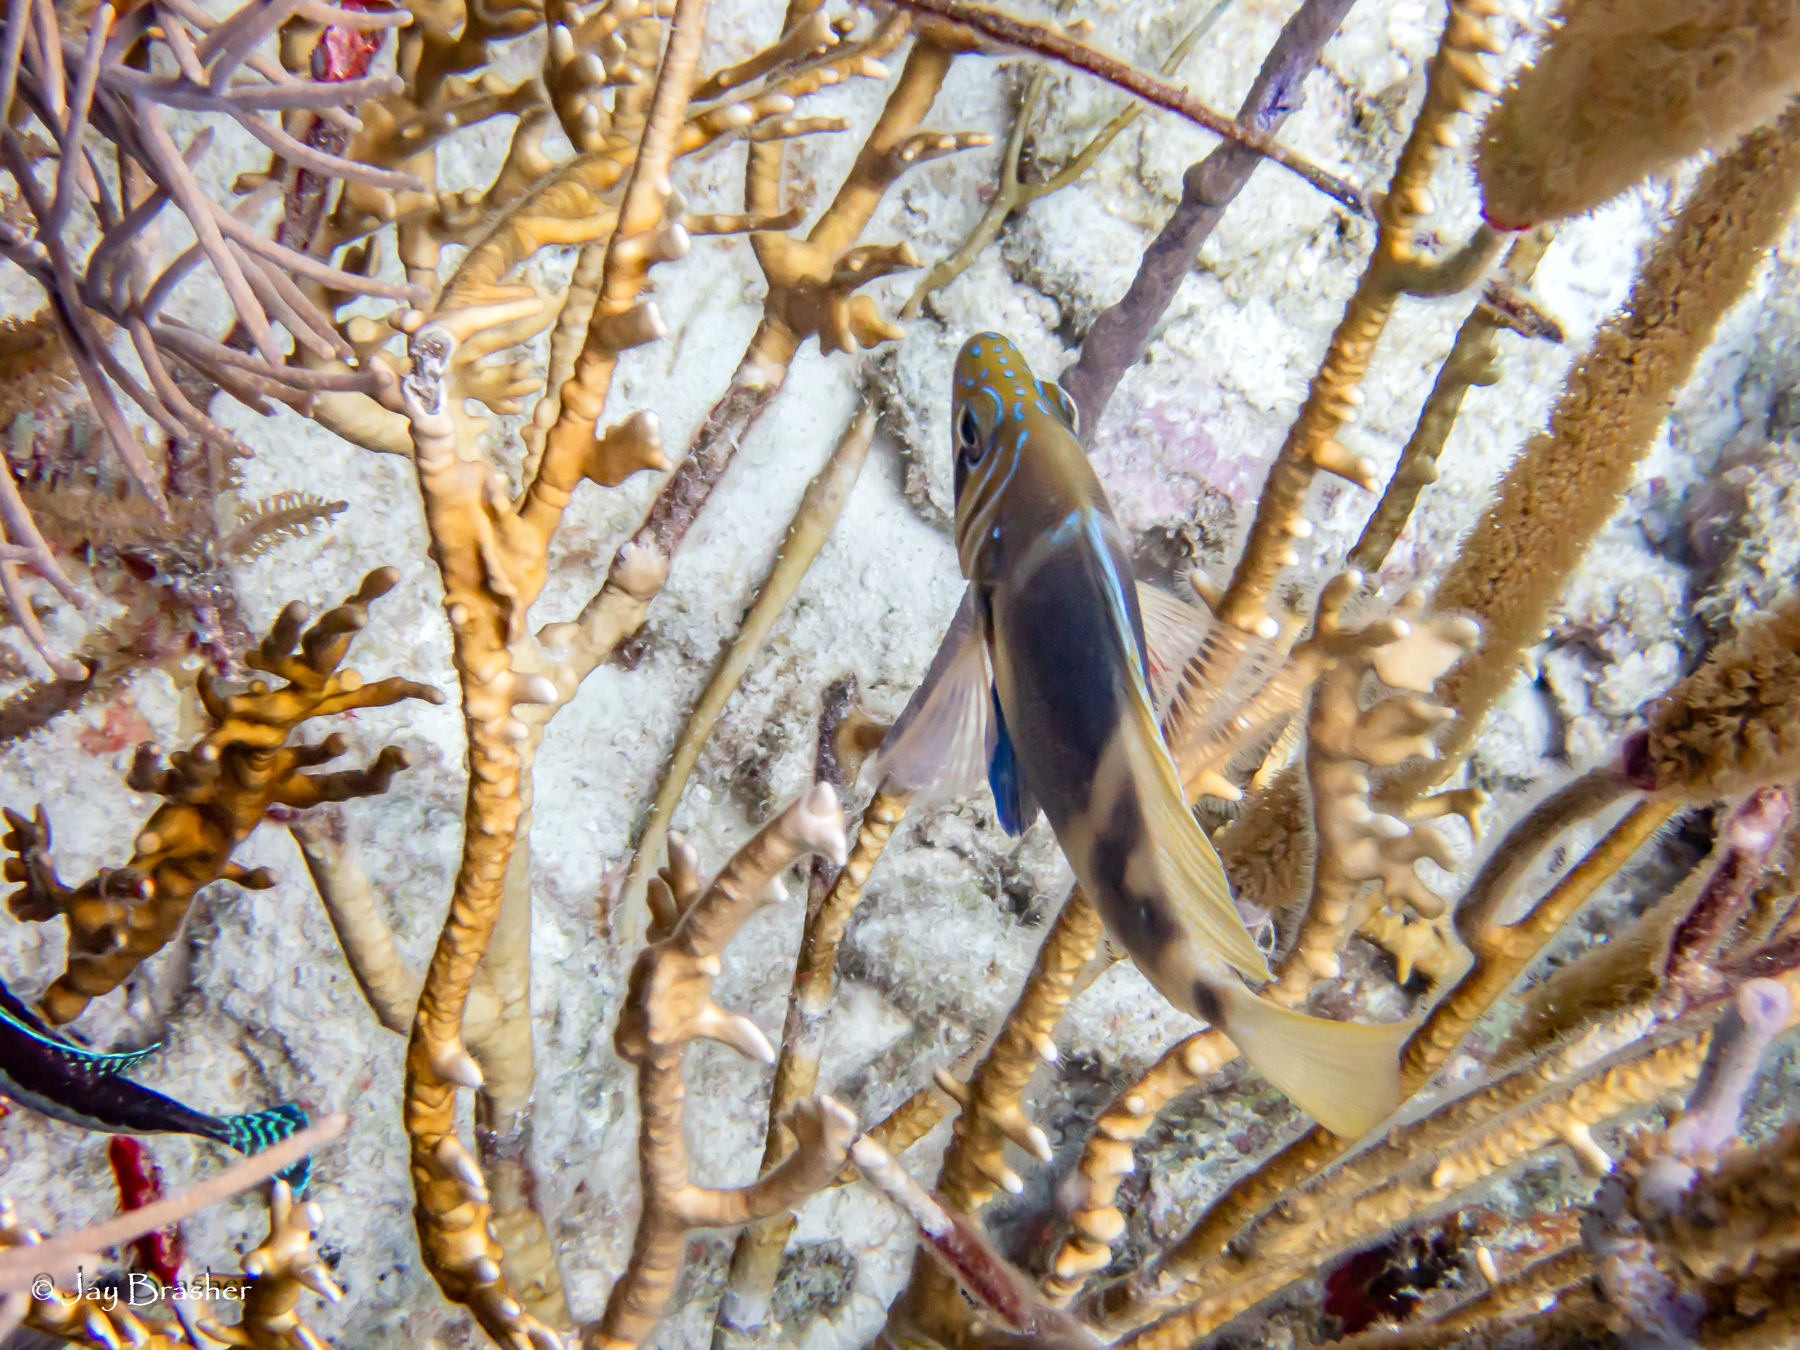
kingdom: Animalia
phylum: Chordata
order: Perciformes
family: Serranidae
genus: Hypoplectrus
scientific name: Hypoplectrus puella
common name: Barred hamlet
